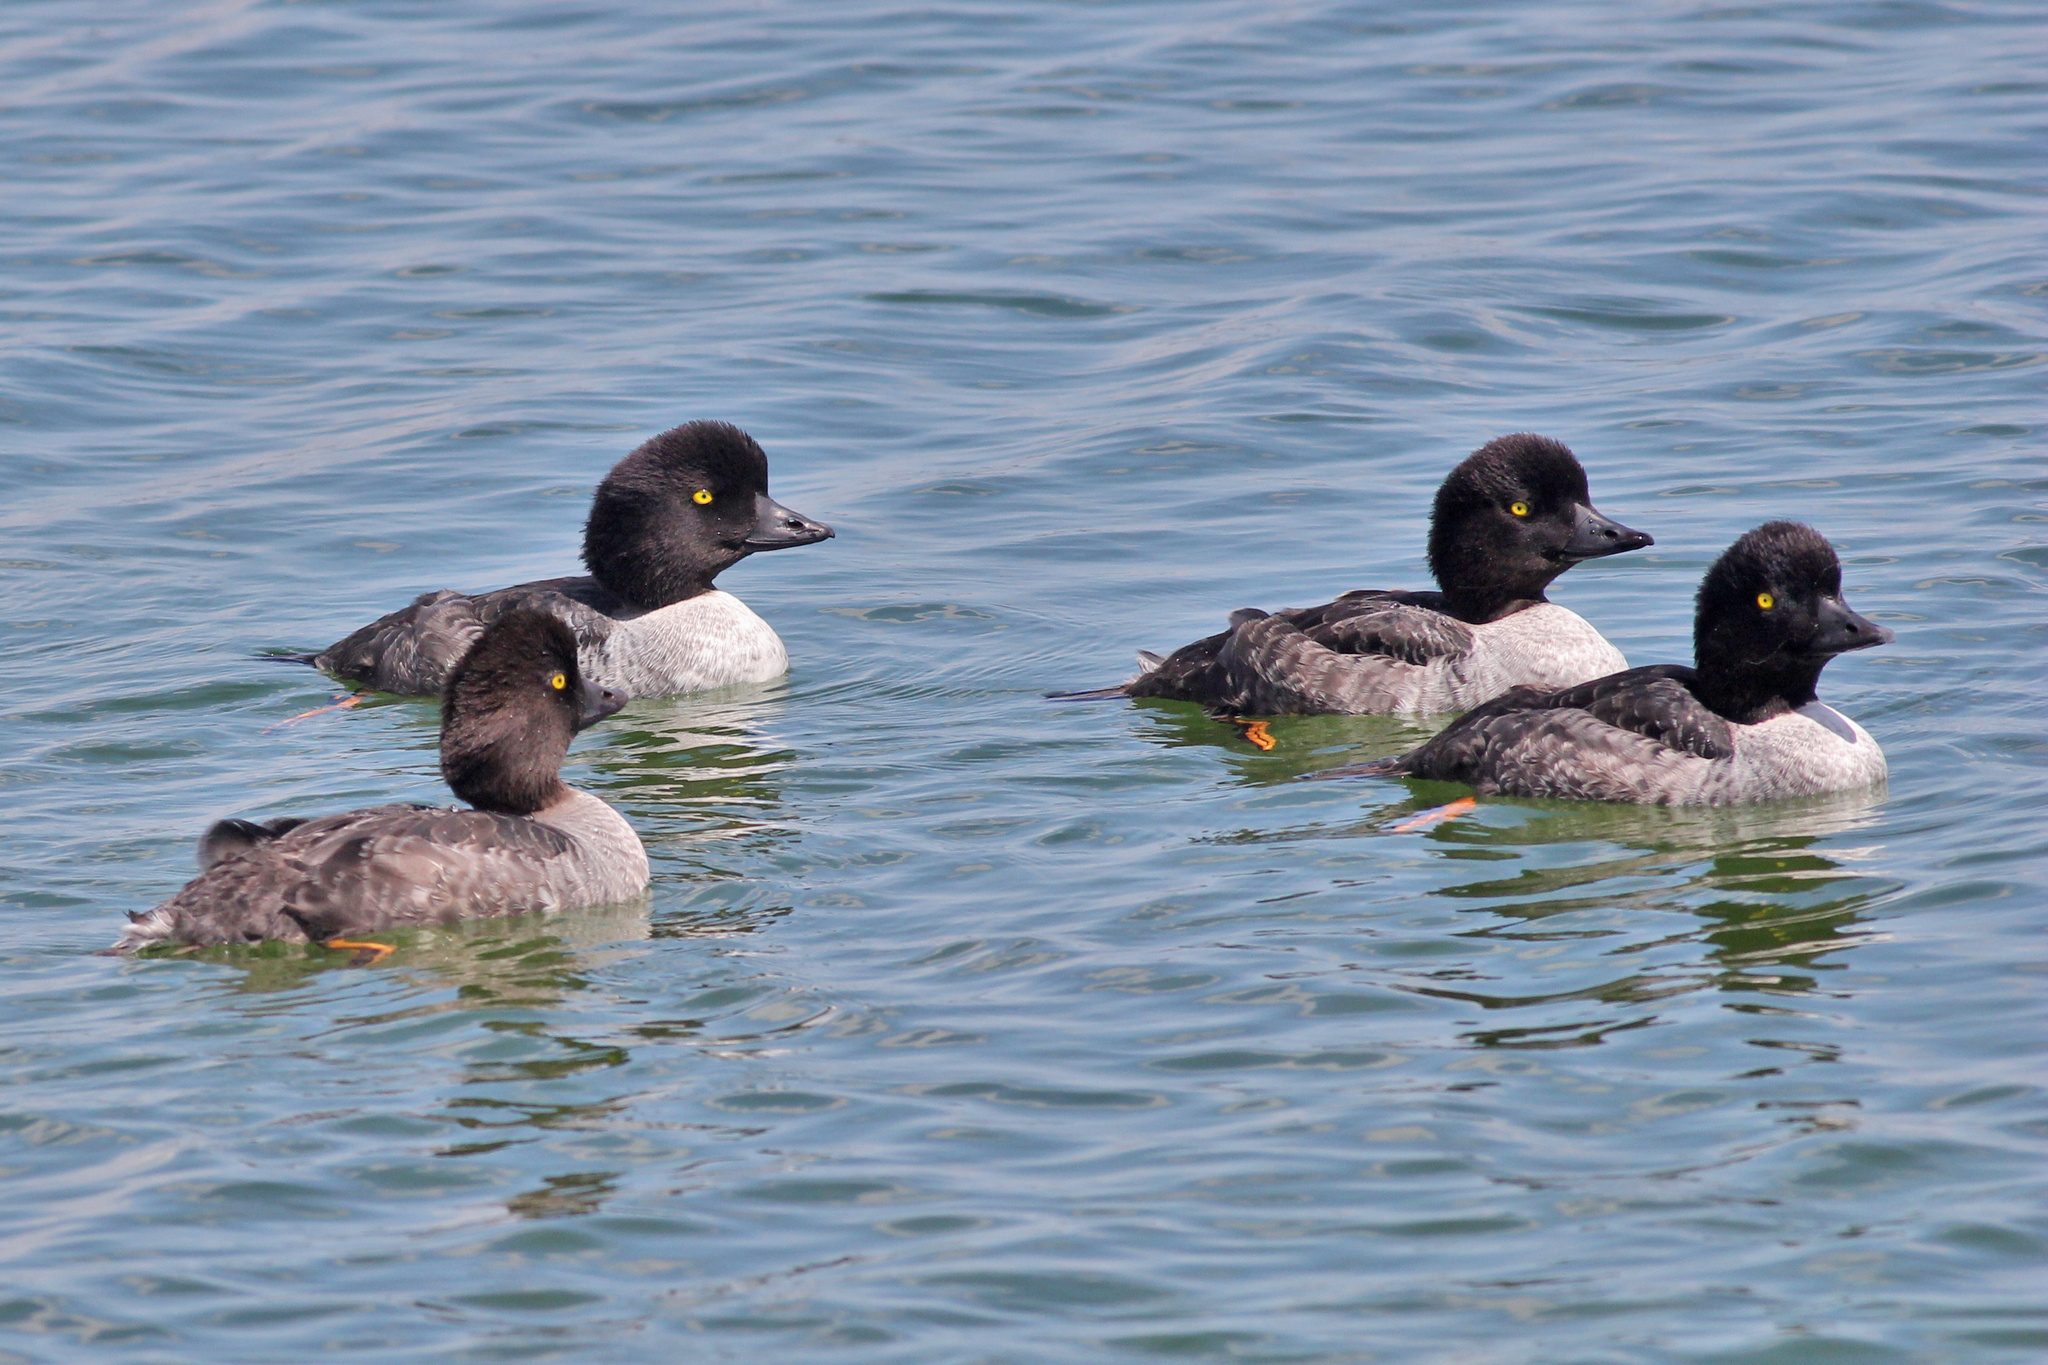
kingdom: Animalia
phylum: Chordata
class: Aves
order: Anseriformes
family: Anatidae
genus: Bucephala
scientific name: Bucephala islandica
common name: Barrow's goldeneye
